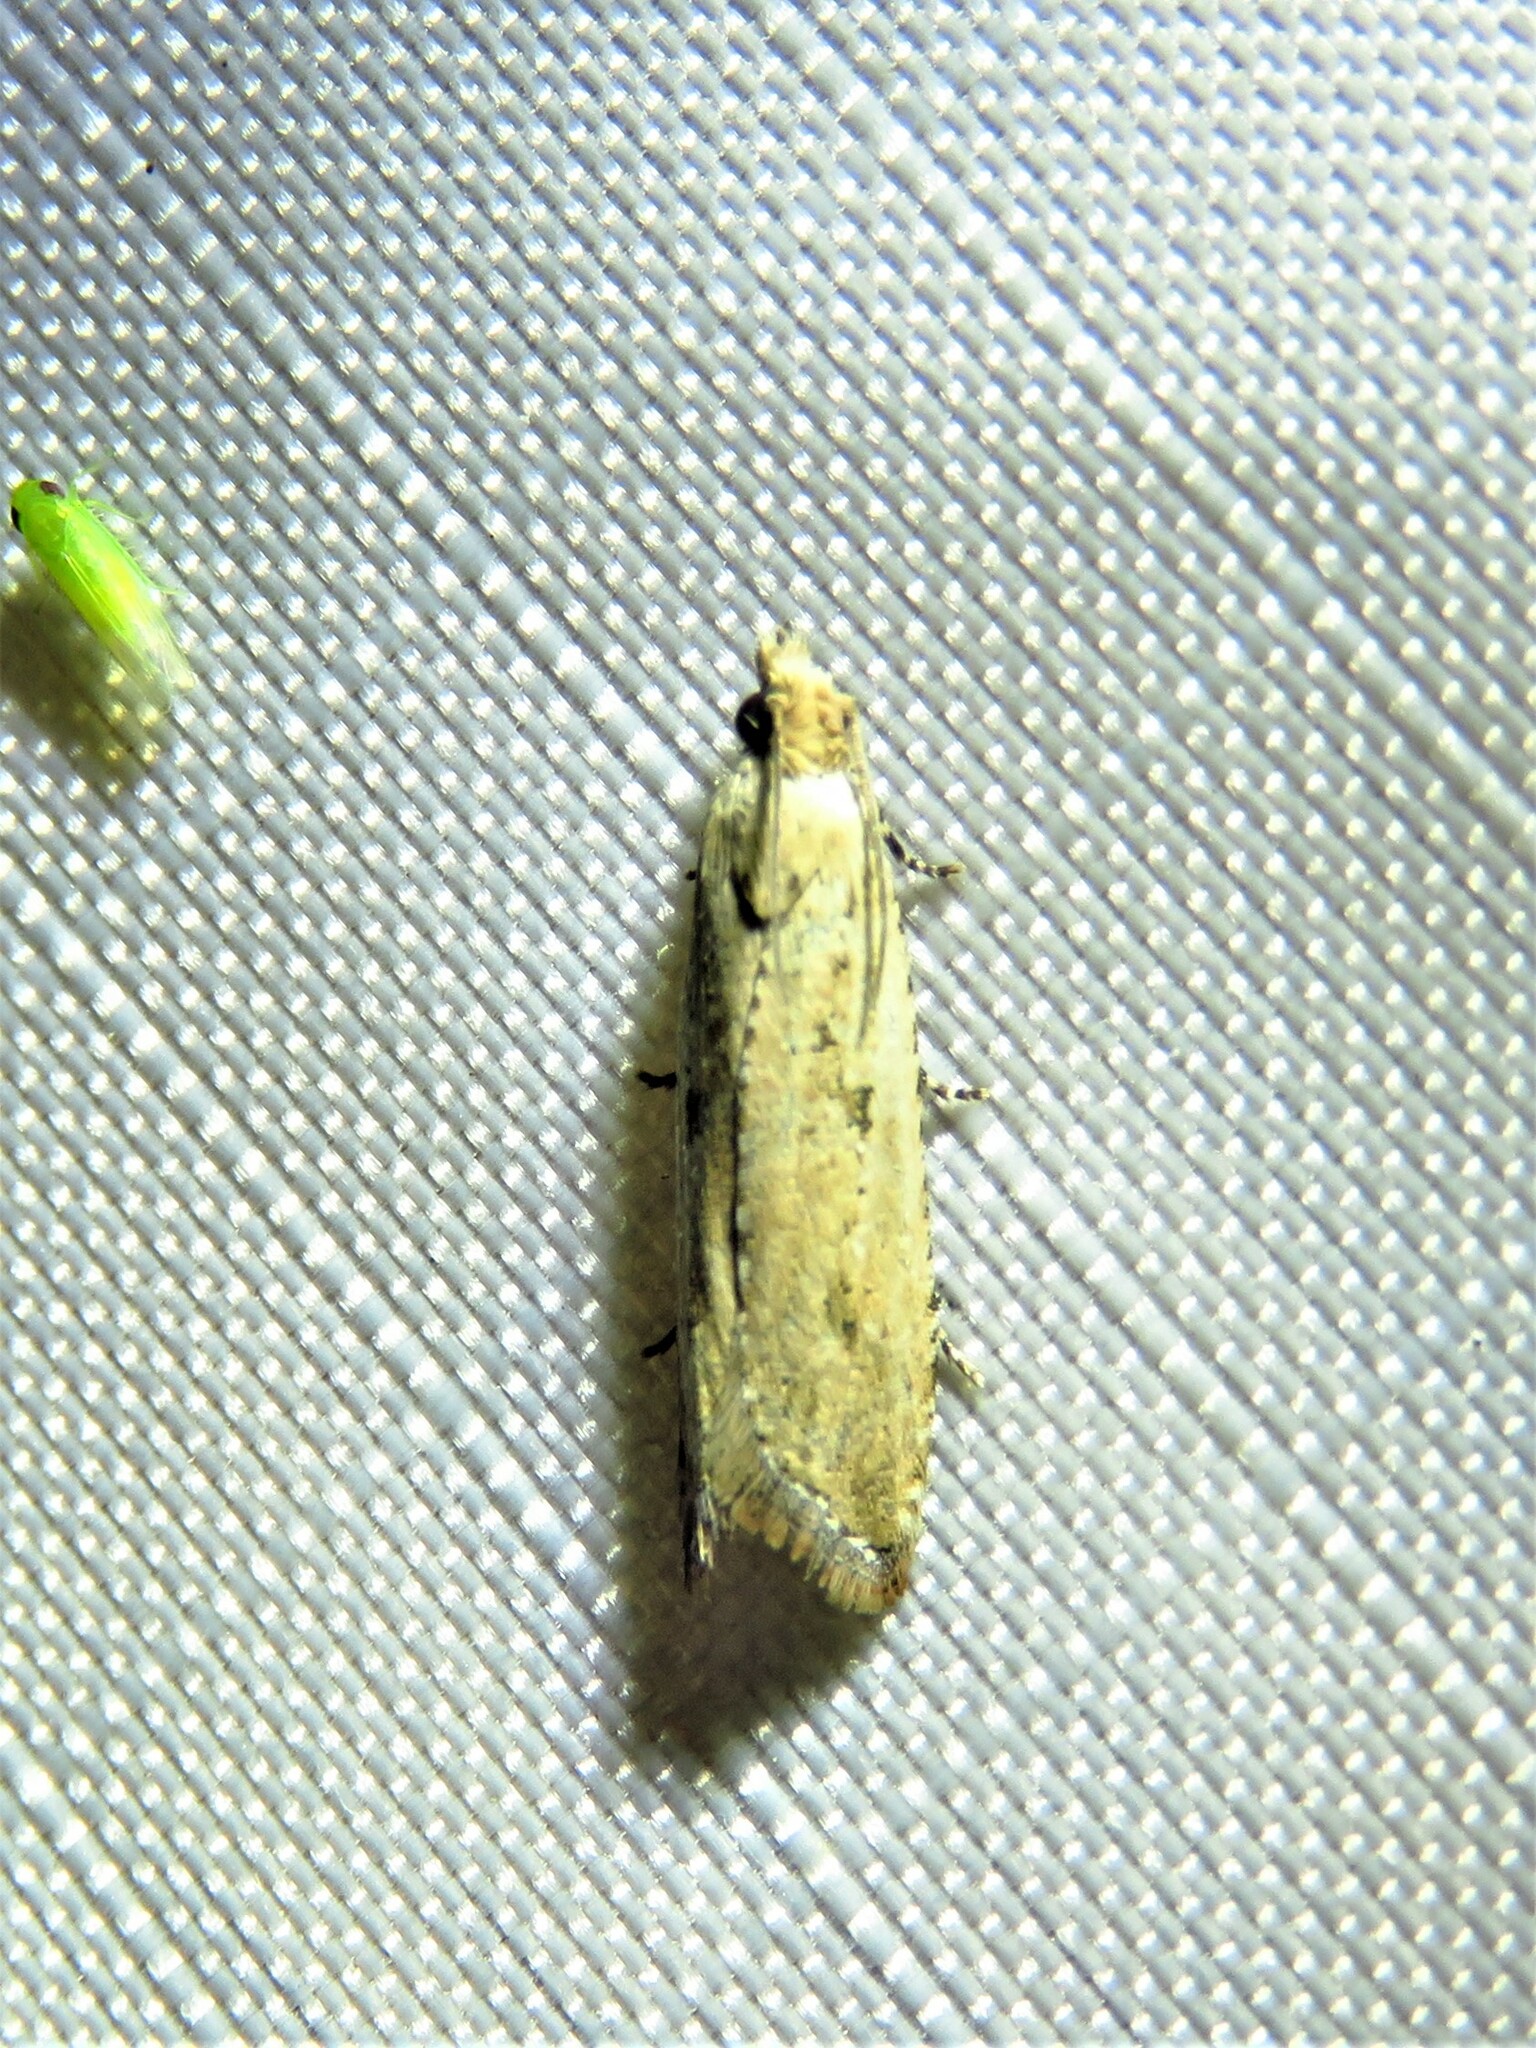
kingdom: Animalia
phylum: Arthropoda
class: Insecta
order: Lepidoptera
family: Tortricidae
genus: Bactra
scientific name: Bactra verutana
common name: Javelin moth
